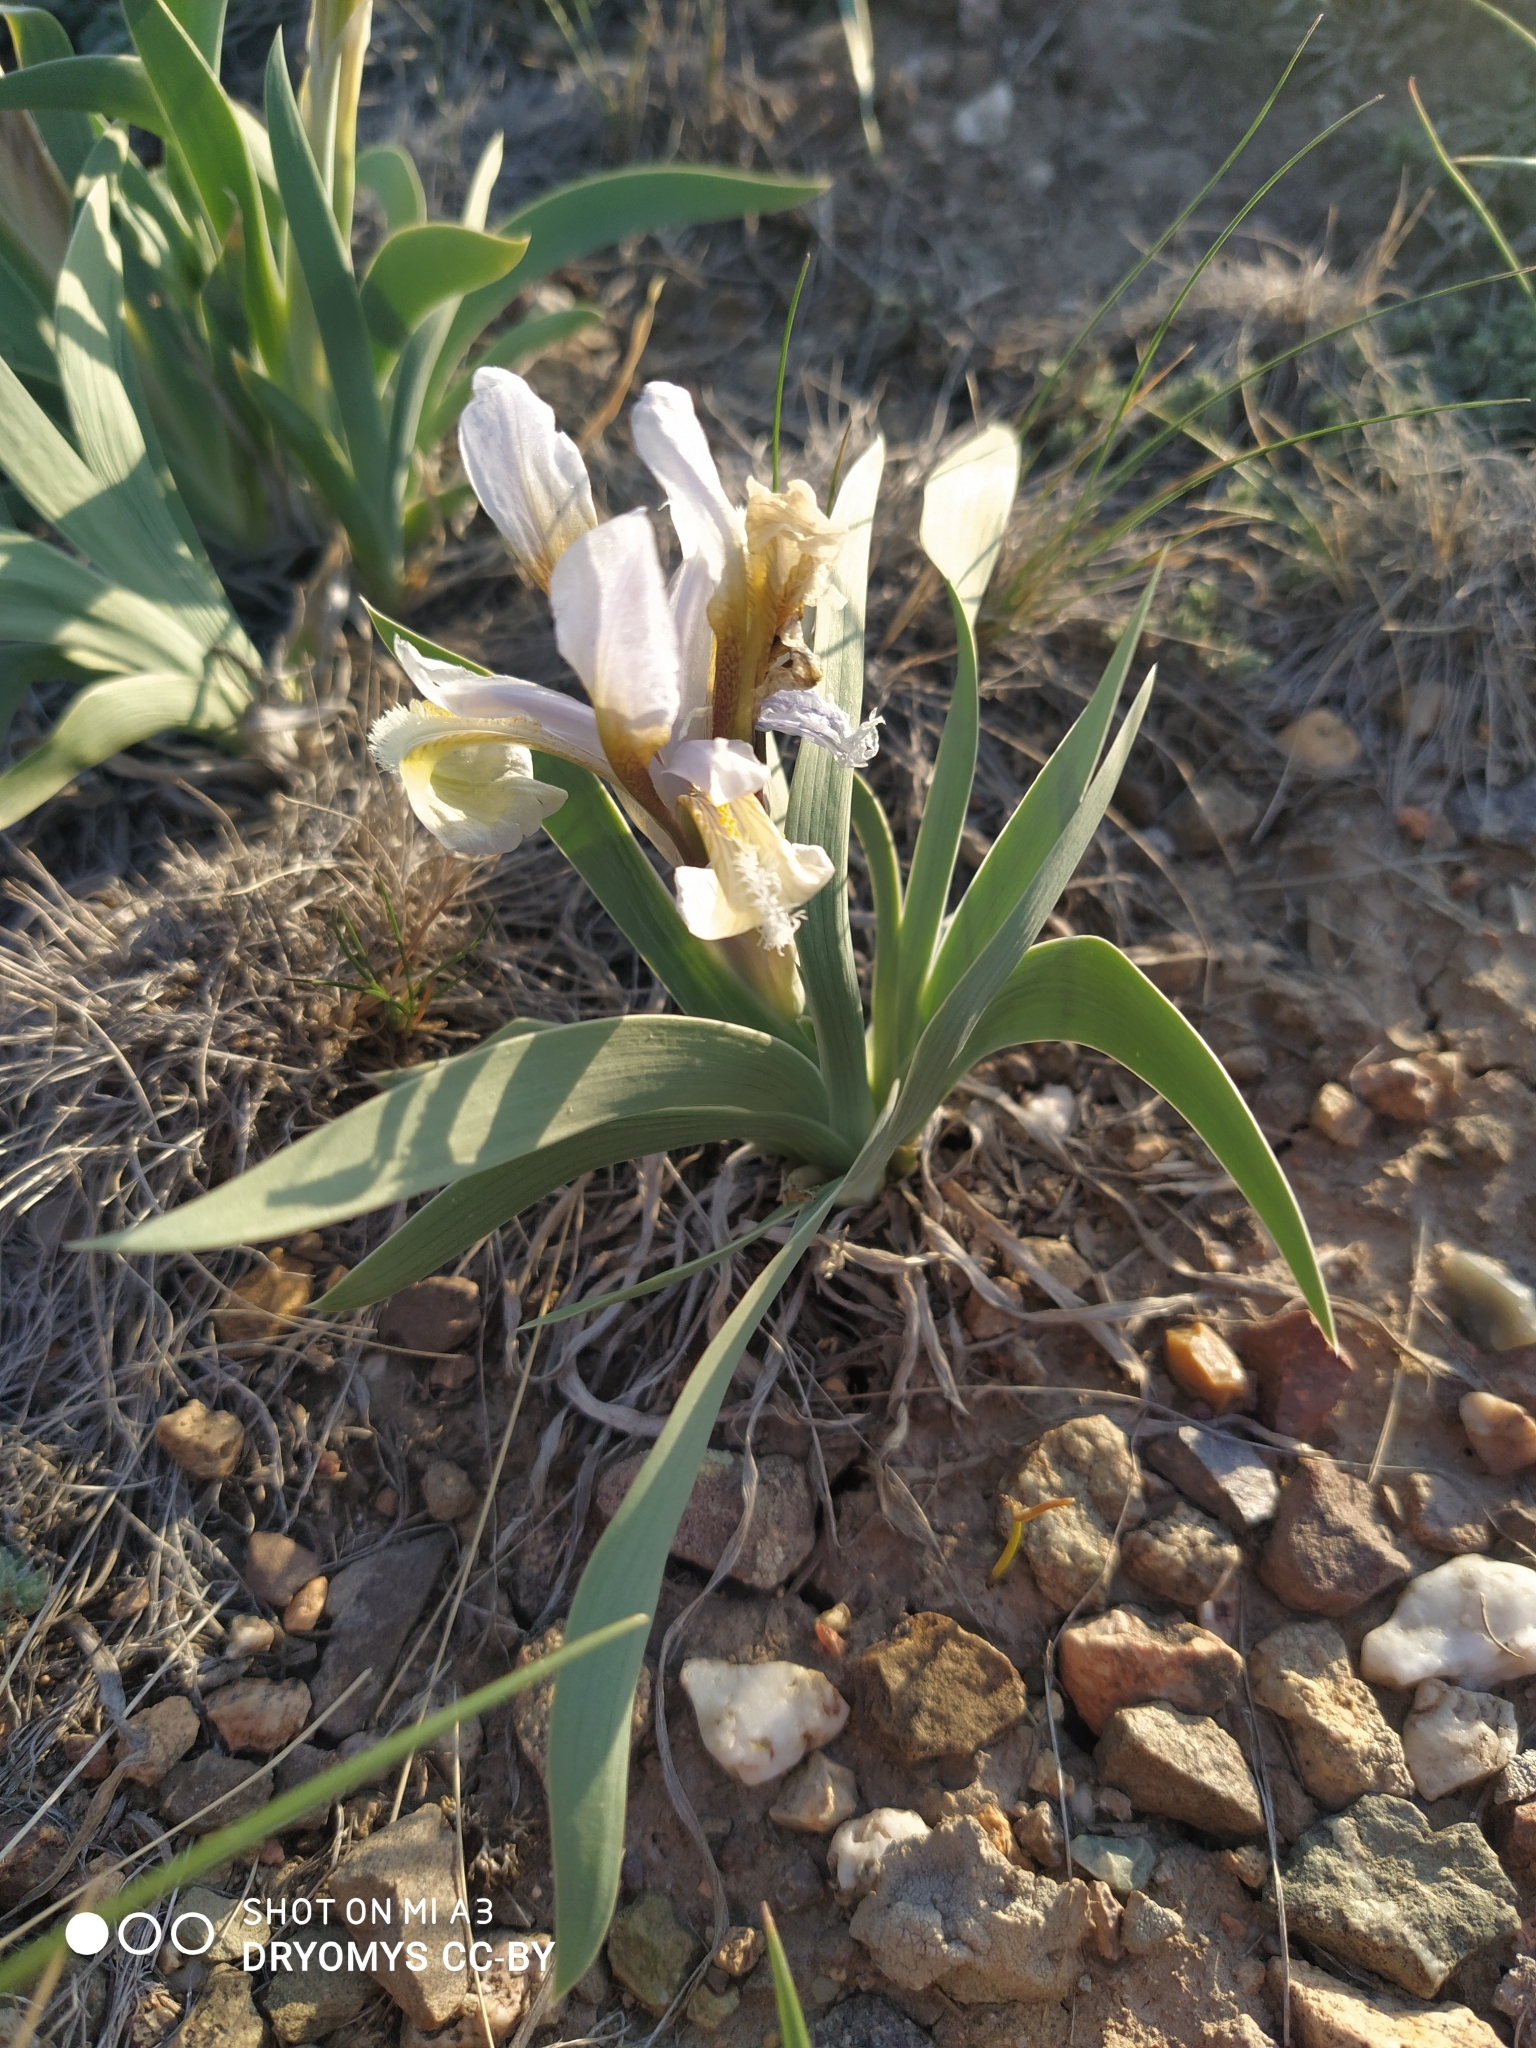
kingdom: Plantae
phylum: Tracheophyta
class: Liliopsida
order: Asparagales
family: Iridaceae
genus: Iris
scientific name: Iris glaucescens
